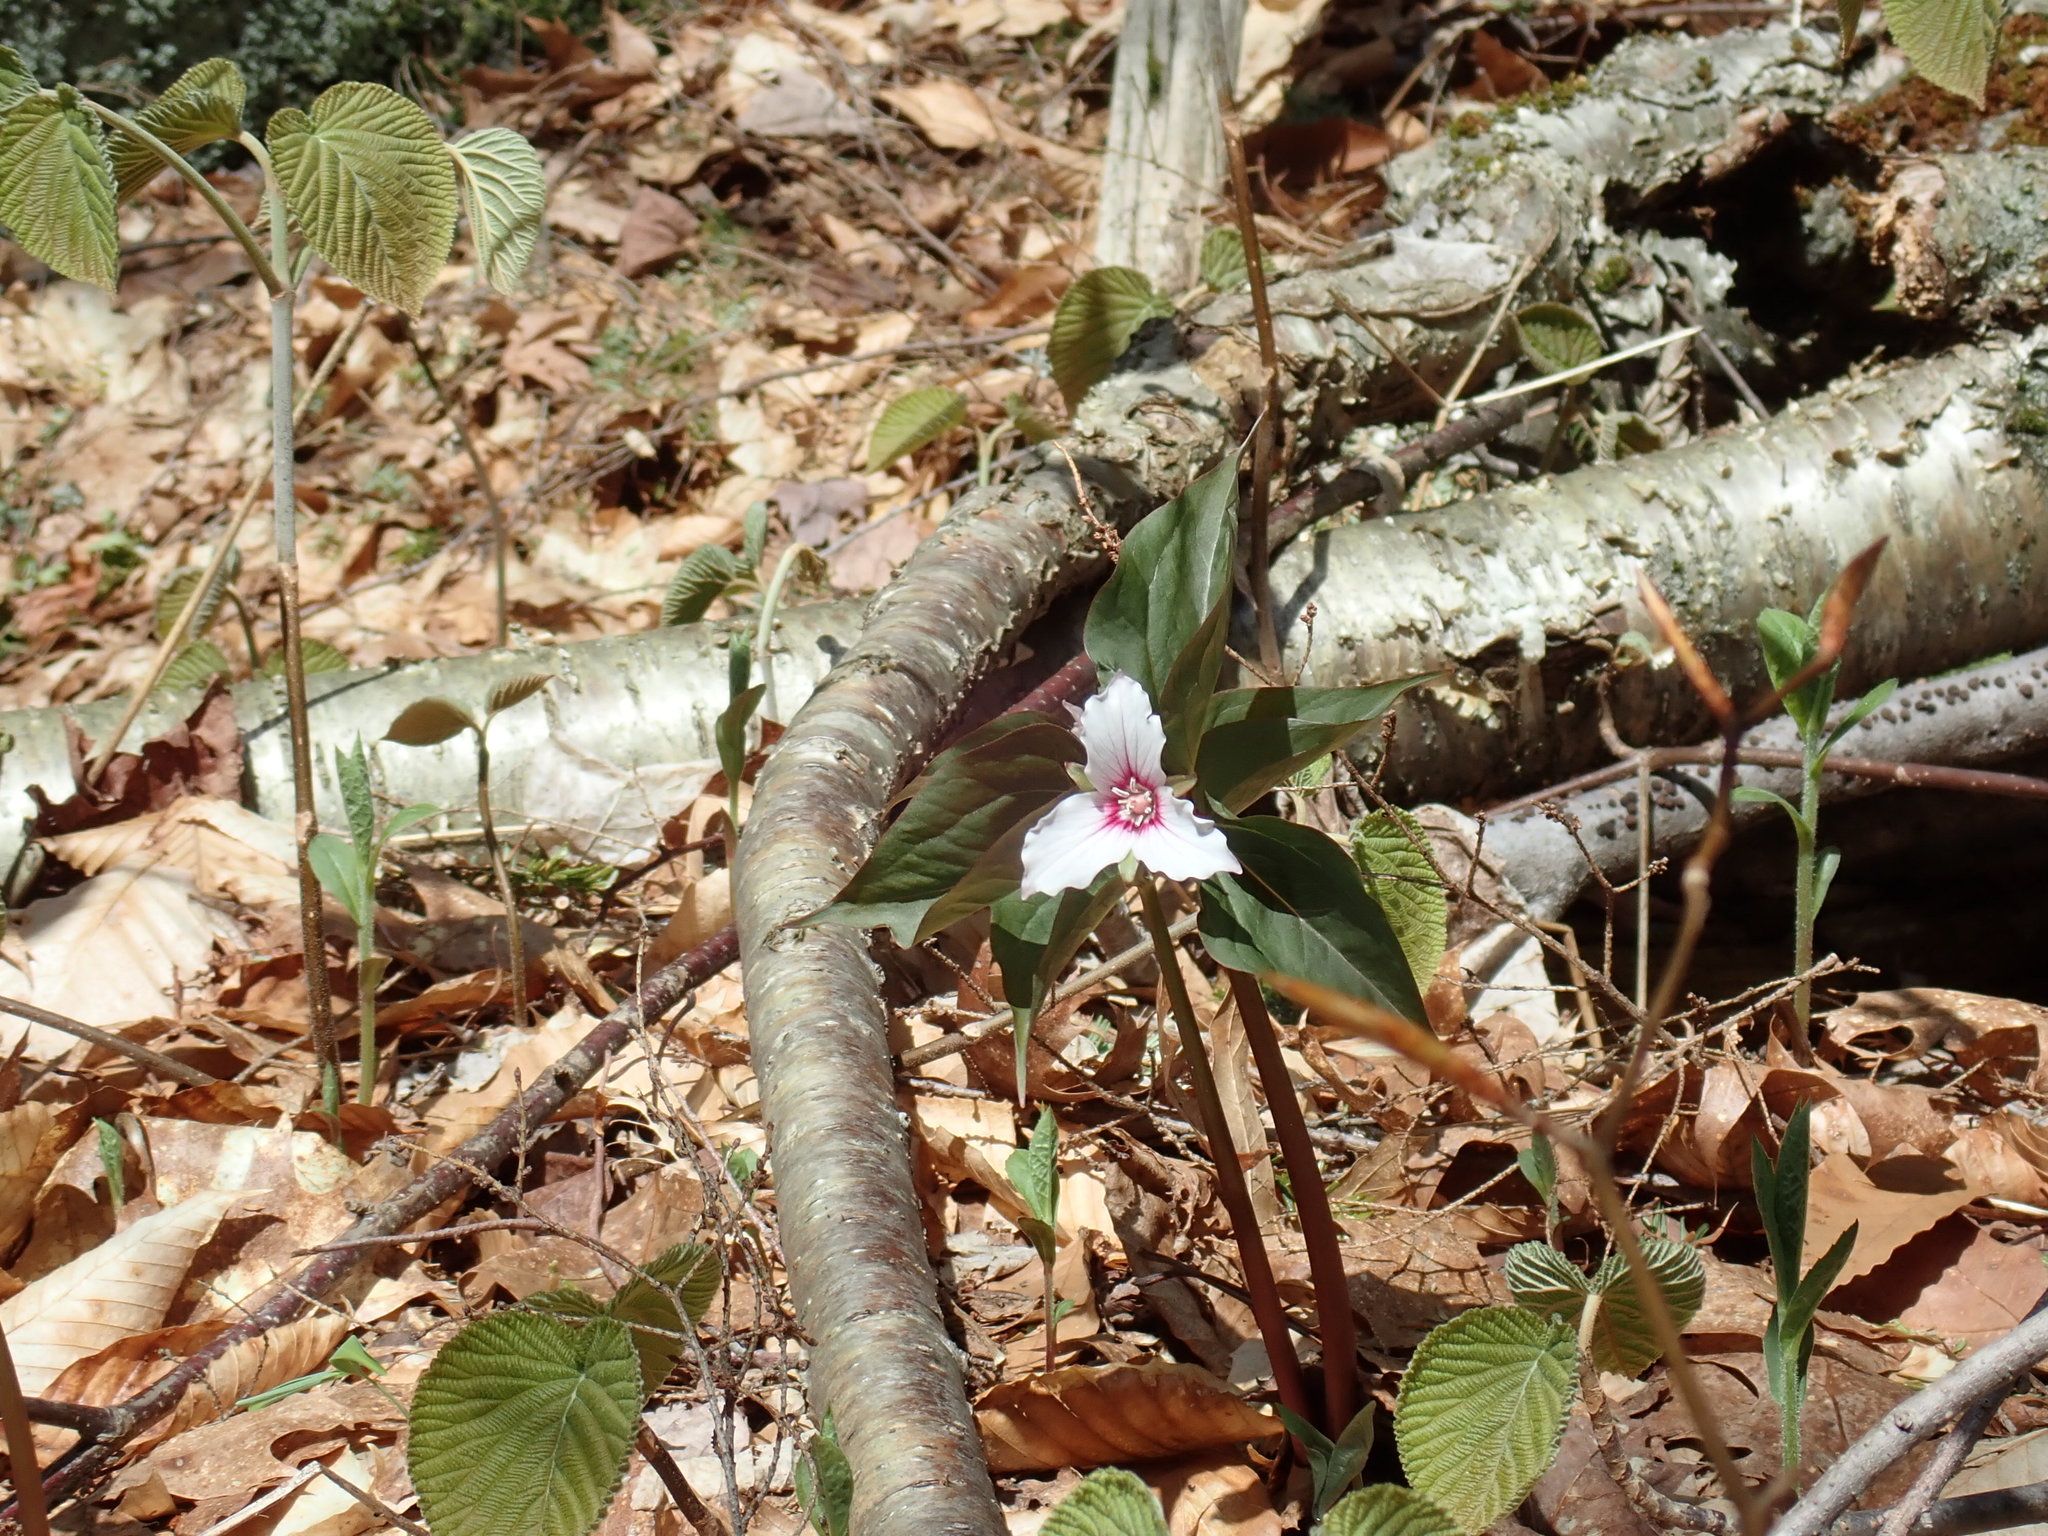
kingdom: Plantae
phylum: Tracheophyta
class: Liliopsida
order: Liliales
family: Melanthiaceae
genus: Trillium
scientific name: Trillium undulatum
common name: Paint trillium
